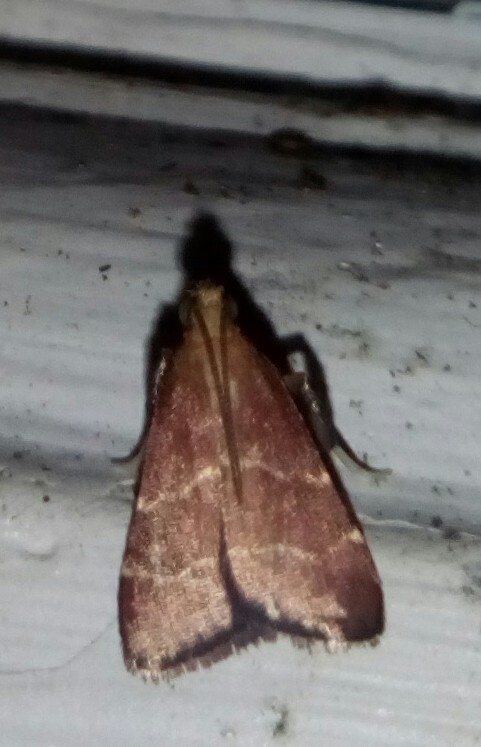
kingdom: Animalia
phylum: Arthropoda
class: Insecta
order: Lepidoptera
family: Pyralidae
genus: Arta
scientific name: Arta statalis
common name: Posturing arta moth
